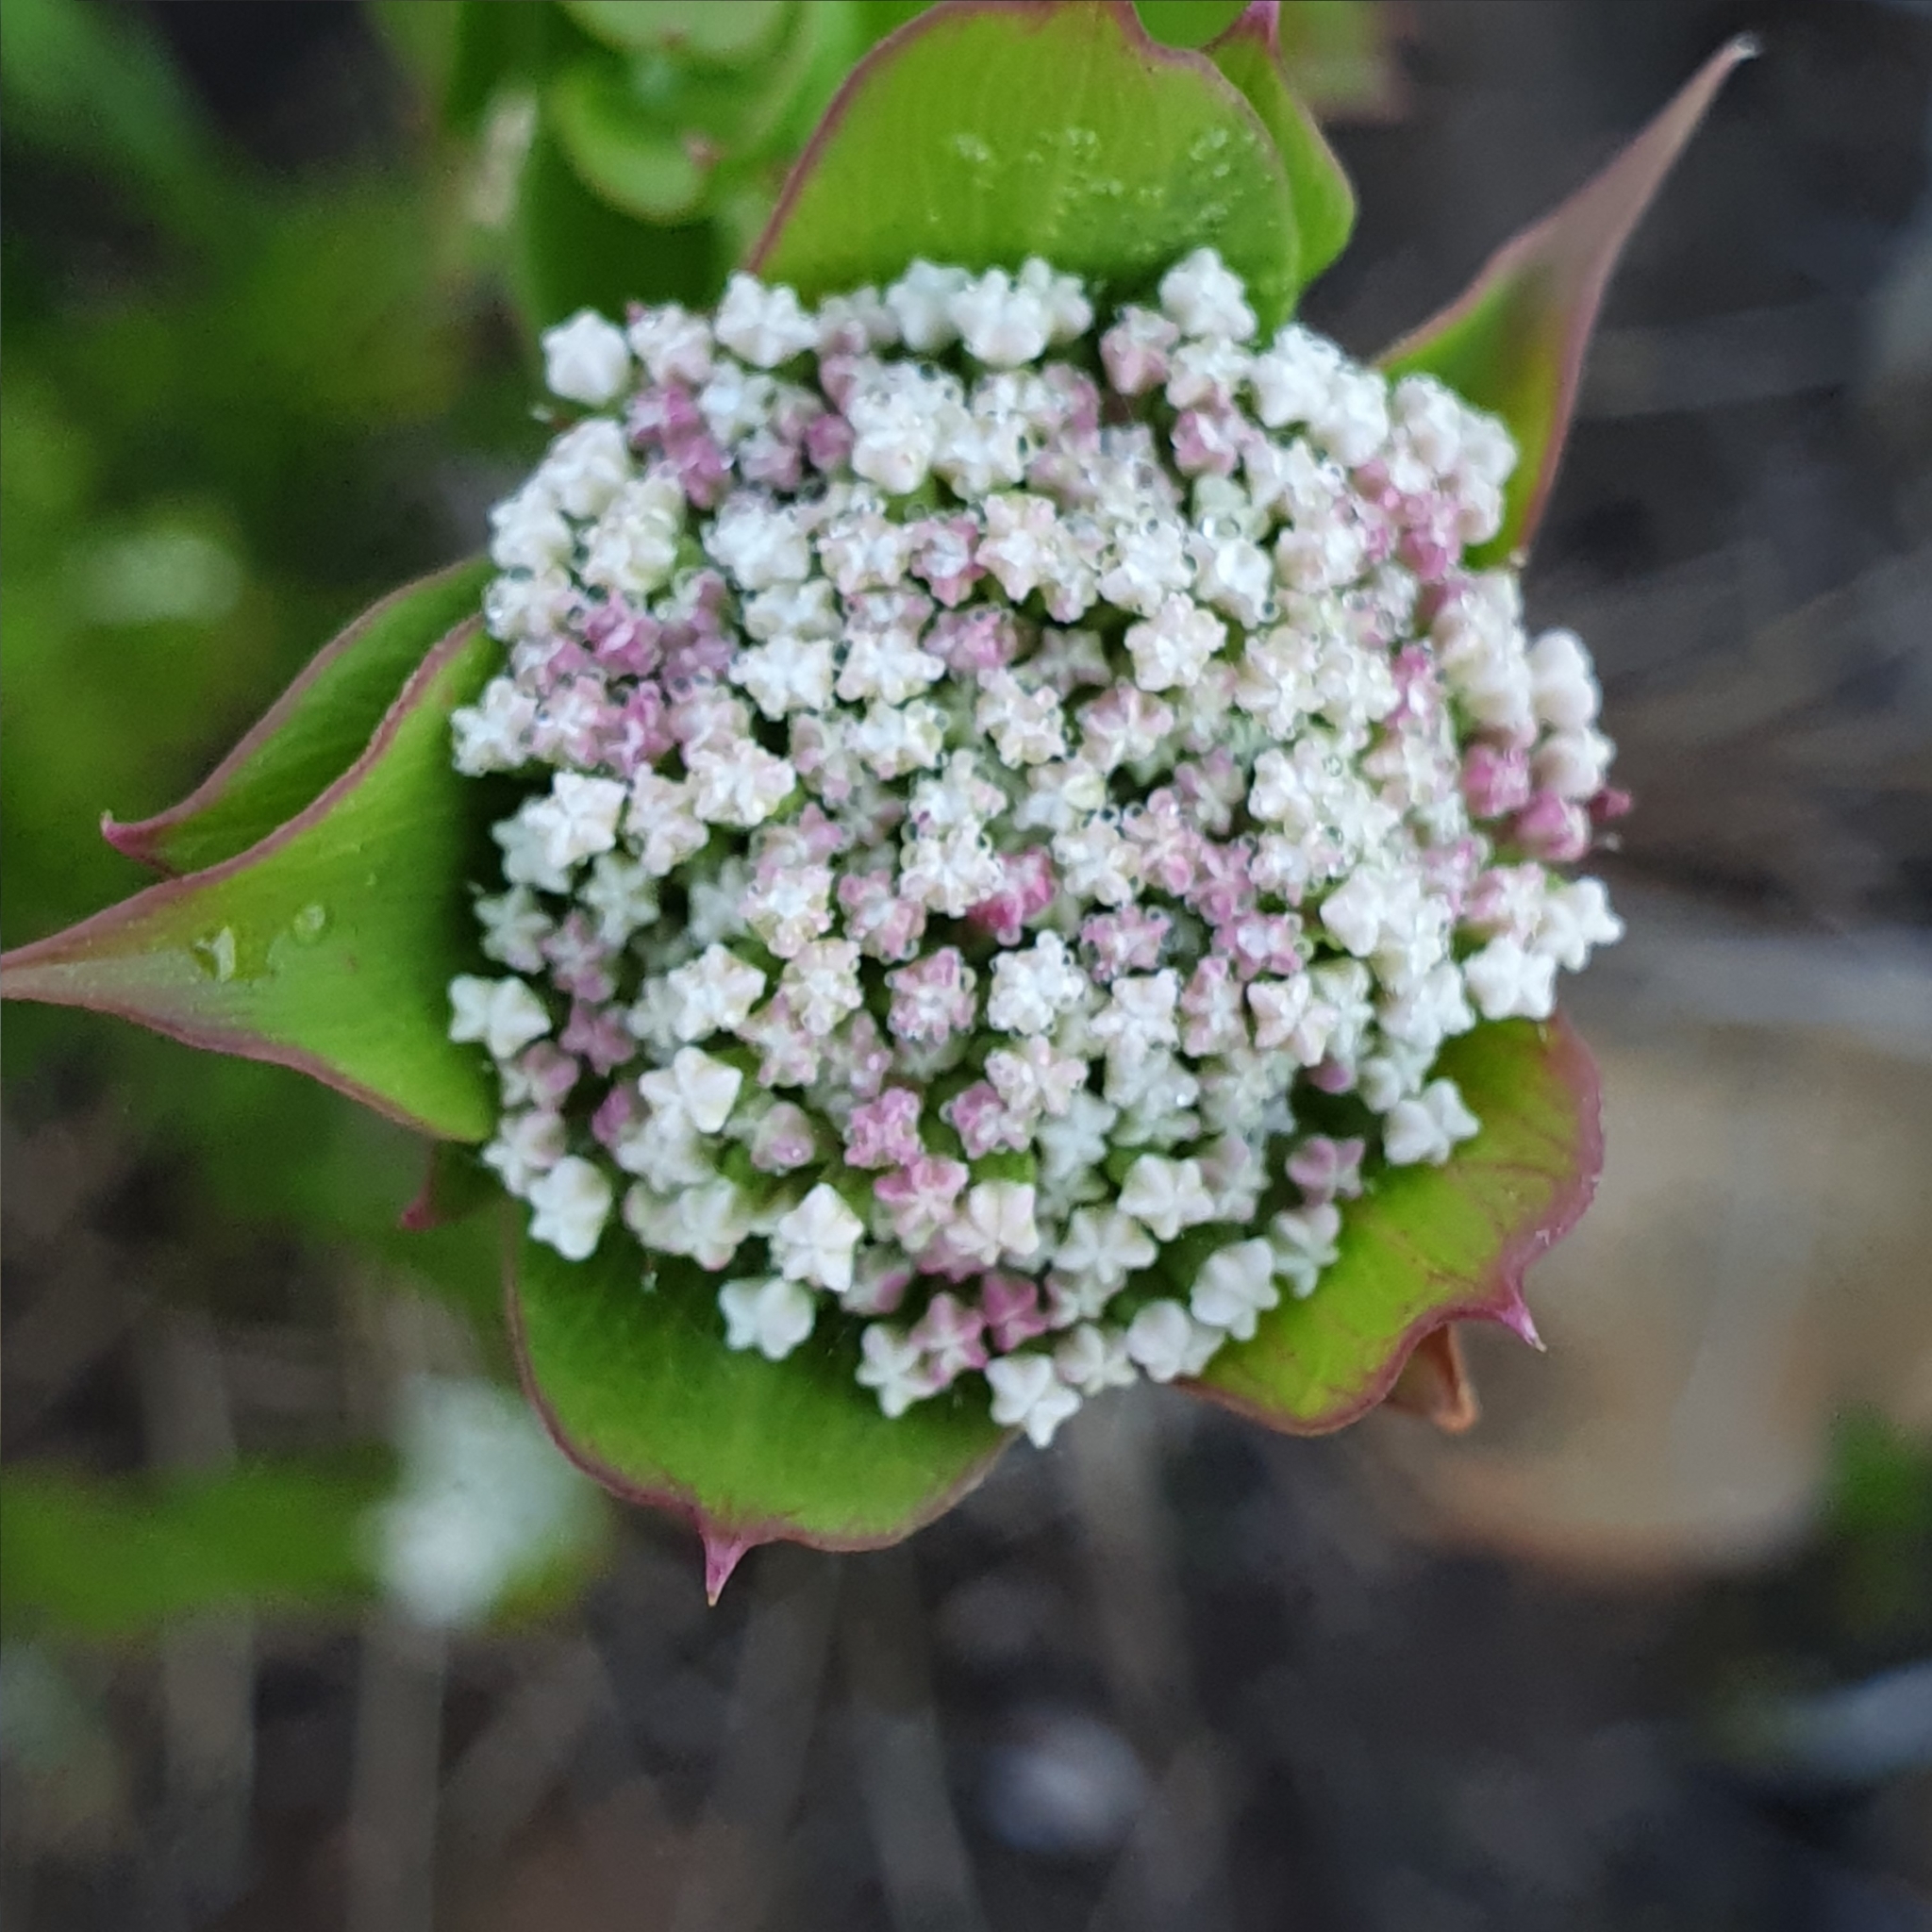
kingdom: Plantae
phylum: Tracheophyta
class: Magnoliopsida
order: Apiales
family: Apiaceae
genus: Platysace
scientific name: Platysace lanceolata
